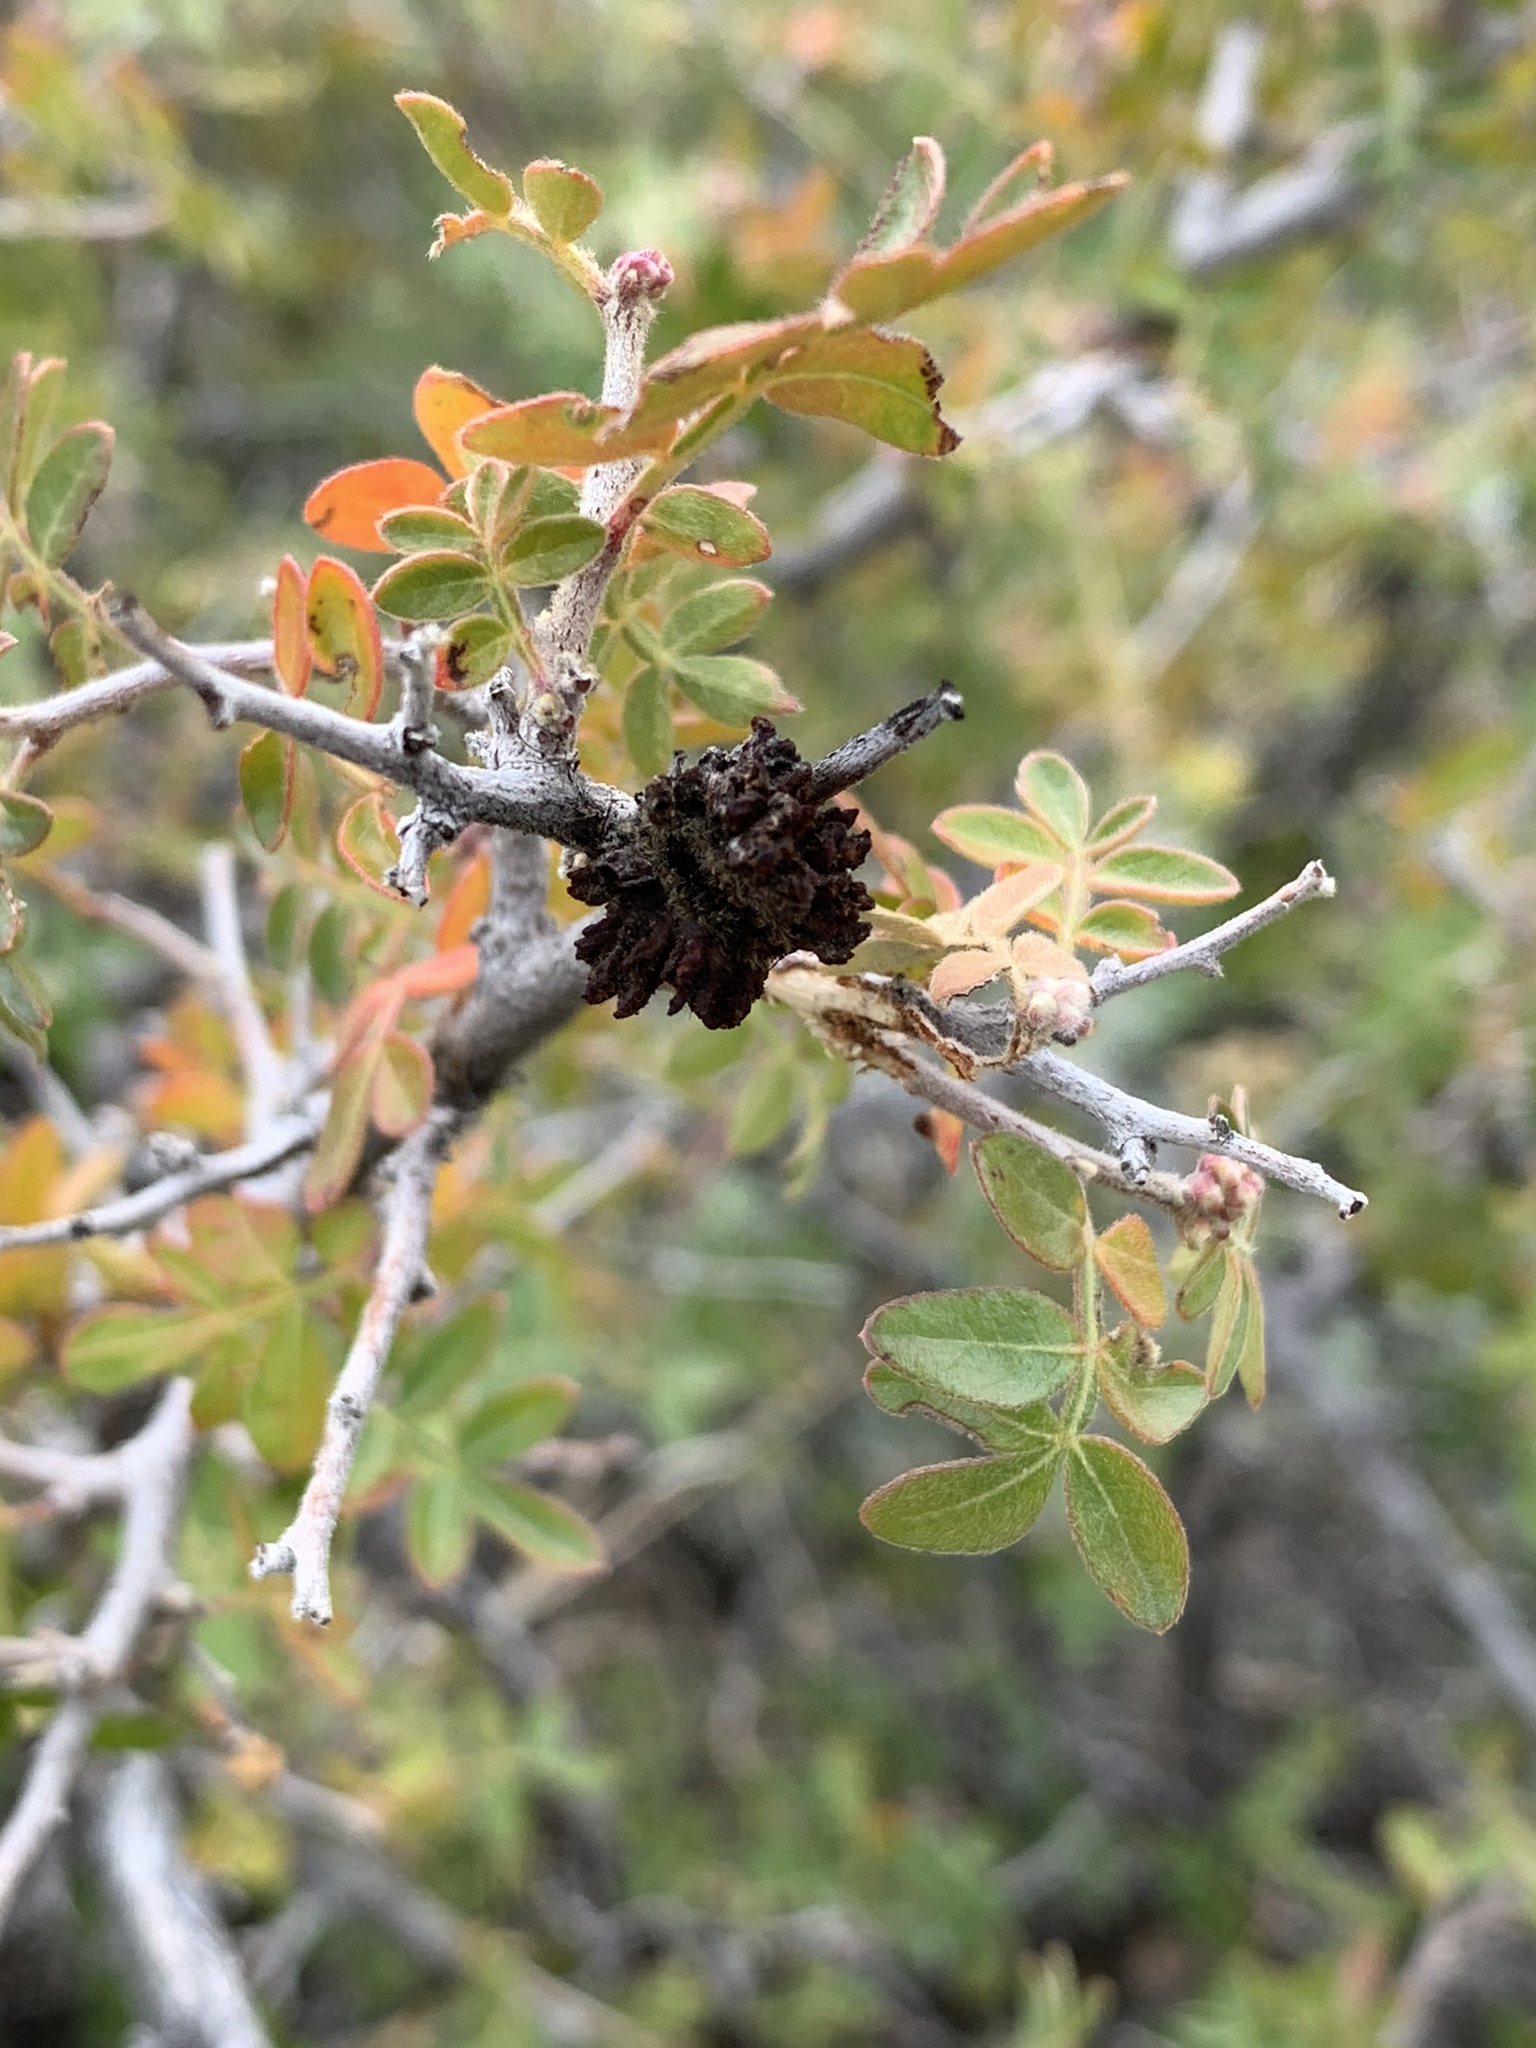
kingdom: Animalia
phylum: Arthropoda
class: Arachnida
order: Trombidiformes
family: Eriophyidae
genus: Aculops
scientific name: Aculops
